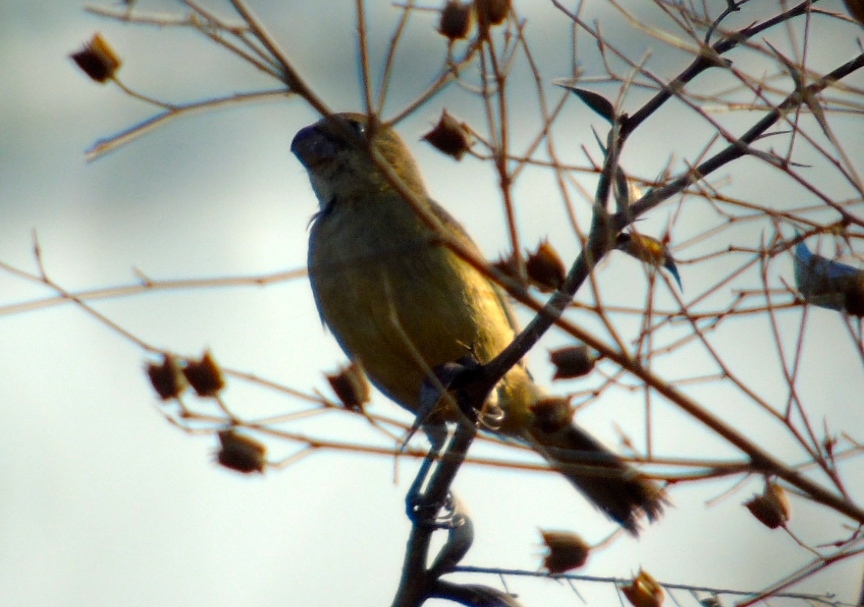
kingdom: Animalia
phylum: Chordata
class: Aves
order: Passeriformes
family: Thraupidae
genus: Sporophila
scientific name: Sporophila torqueola
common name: White-collared seedeater
